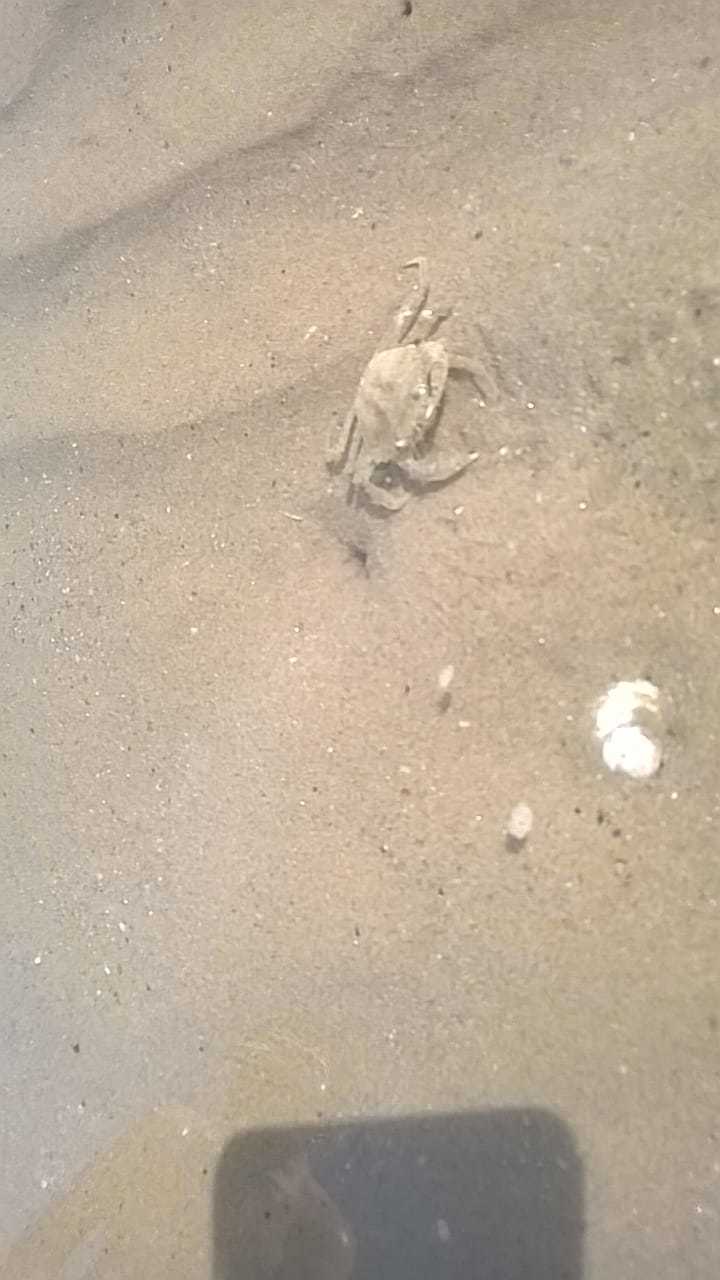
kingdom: Animalia
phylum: Arthropoda
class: Malacostraca
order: Decapoda
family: Carcinidae
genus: Carcinus
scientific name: Carcinus aestuarii
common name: Mediterranean green crab
